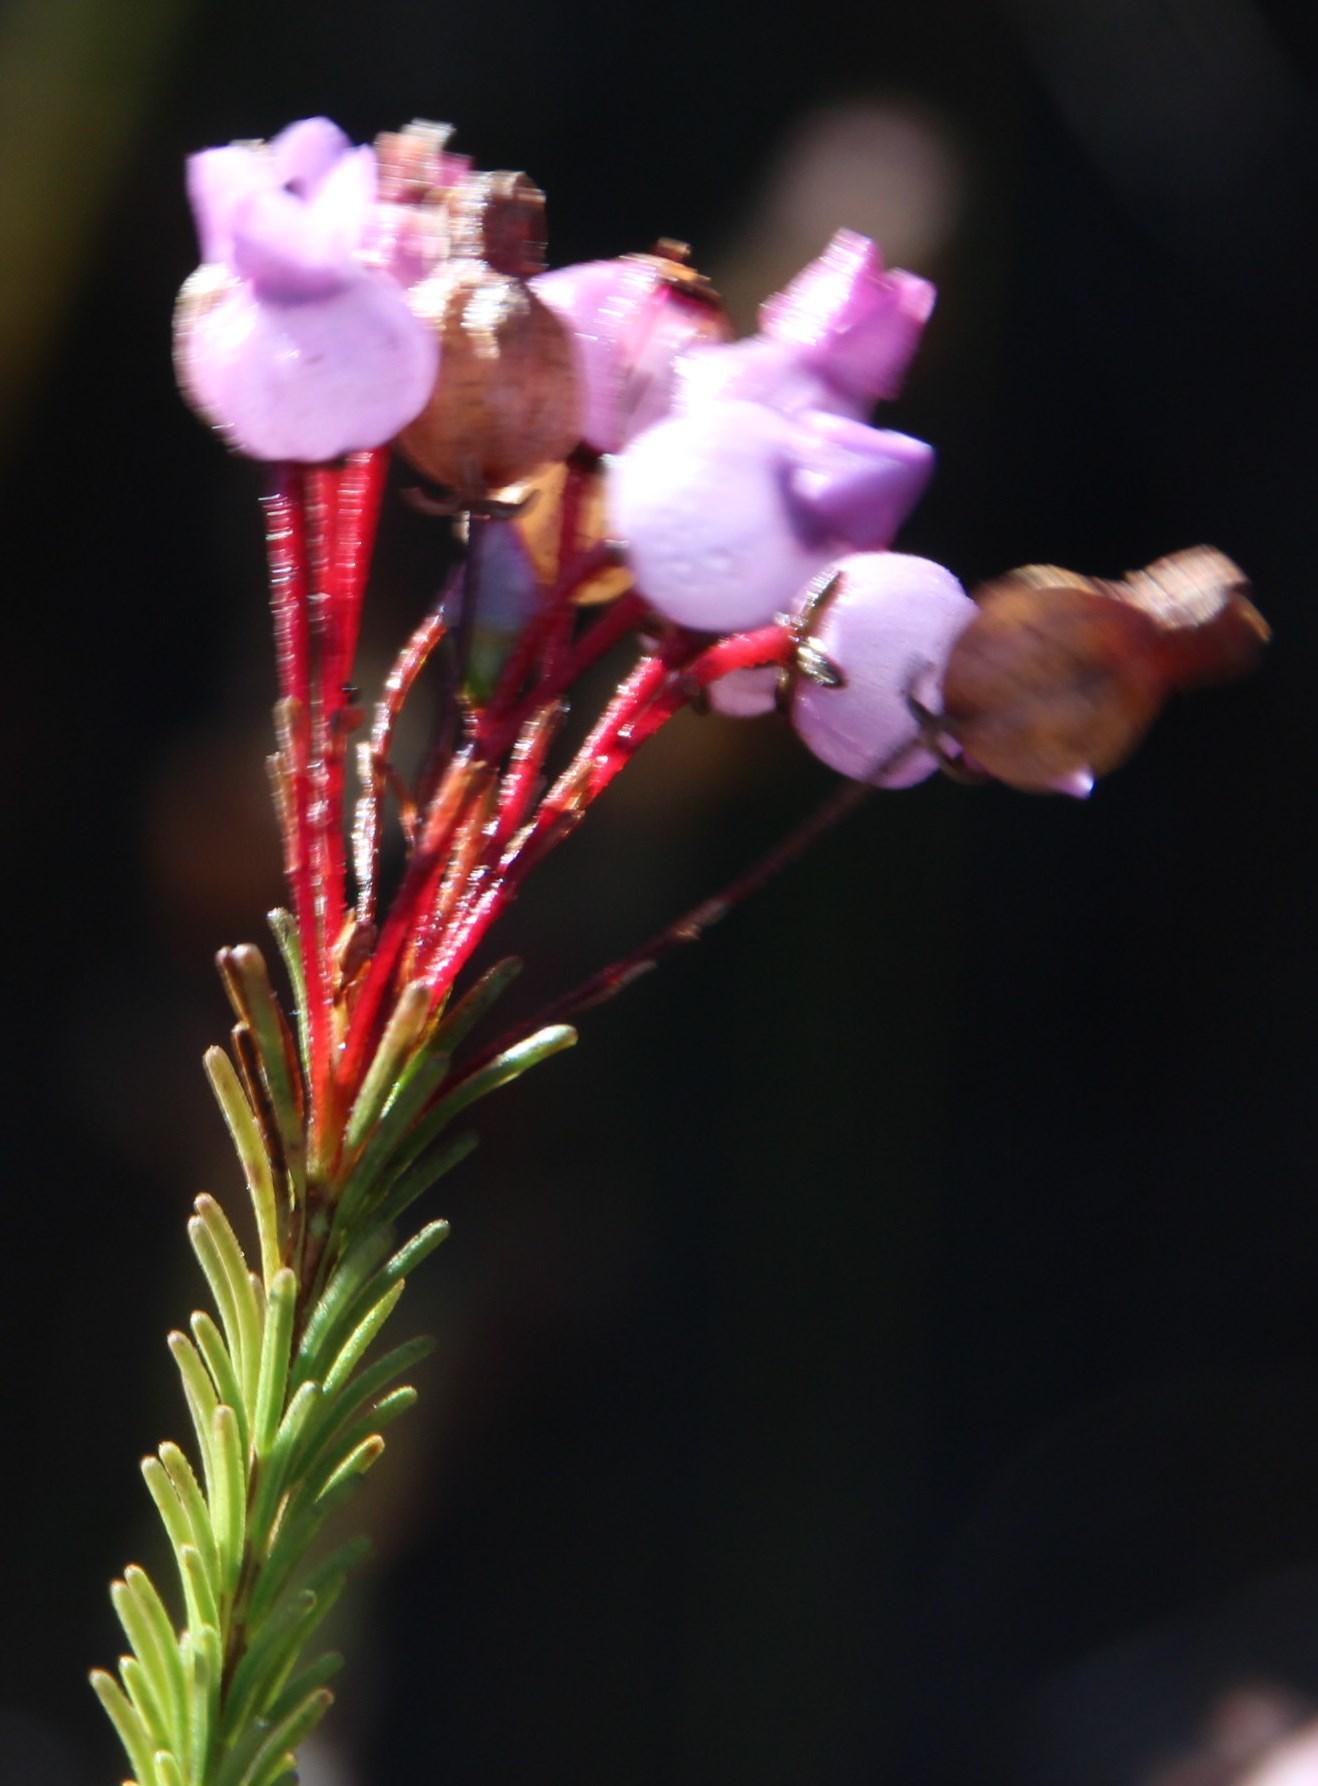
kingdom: Plantae
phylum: Tracheophyta
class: Magnoliopsida
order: Ericales
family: Ericaceae
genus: Erica
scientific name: Erica obliqua
